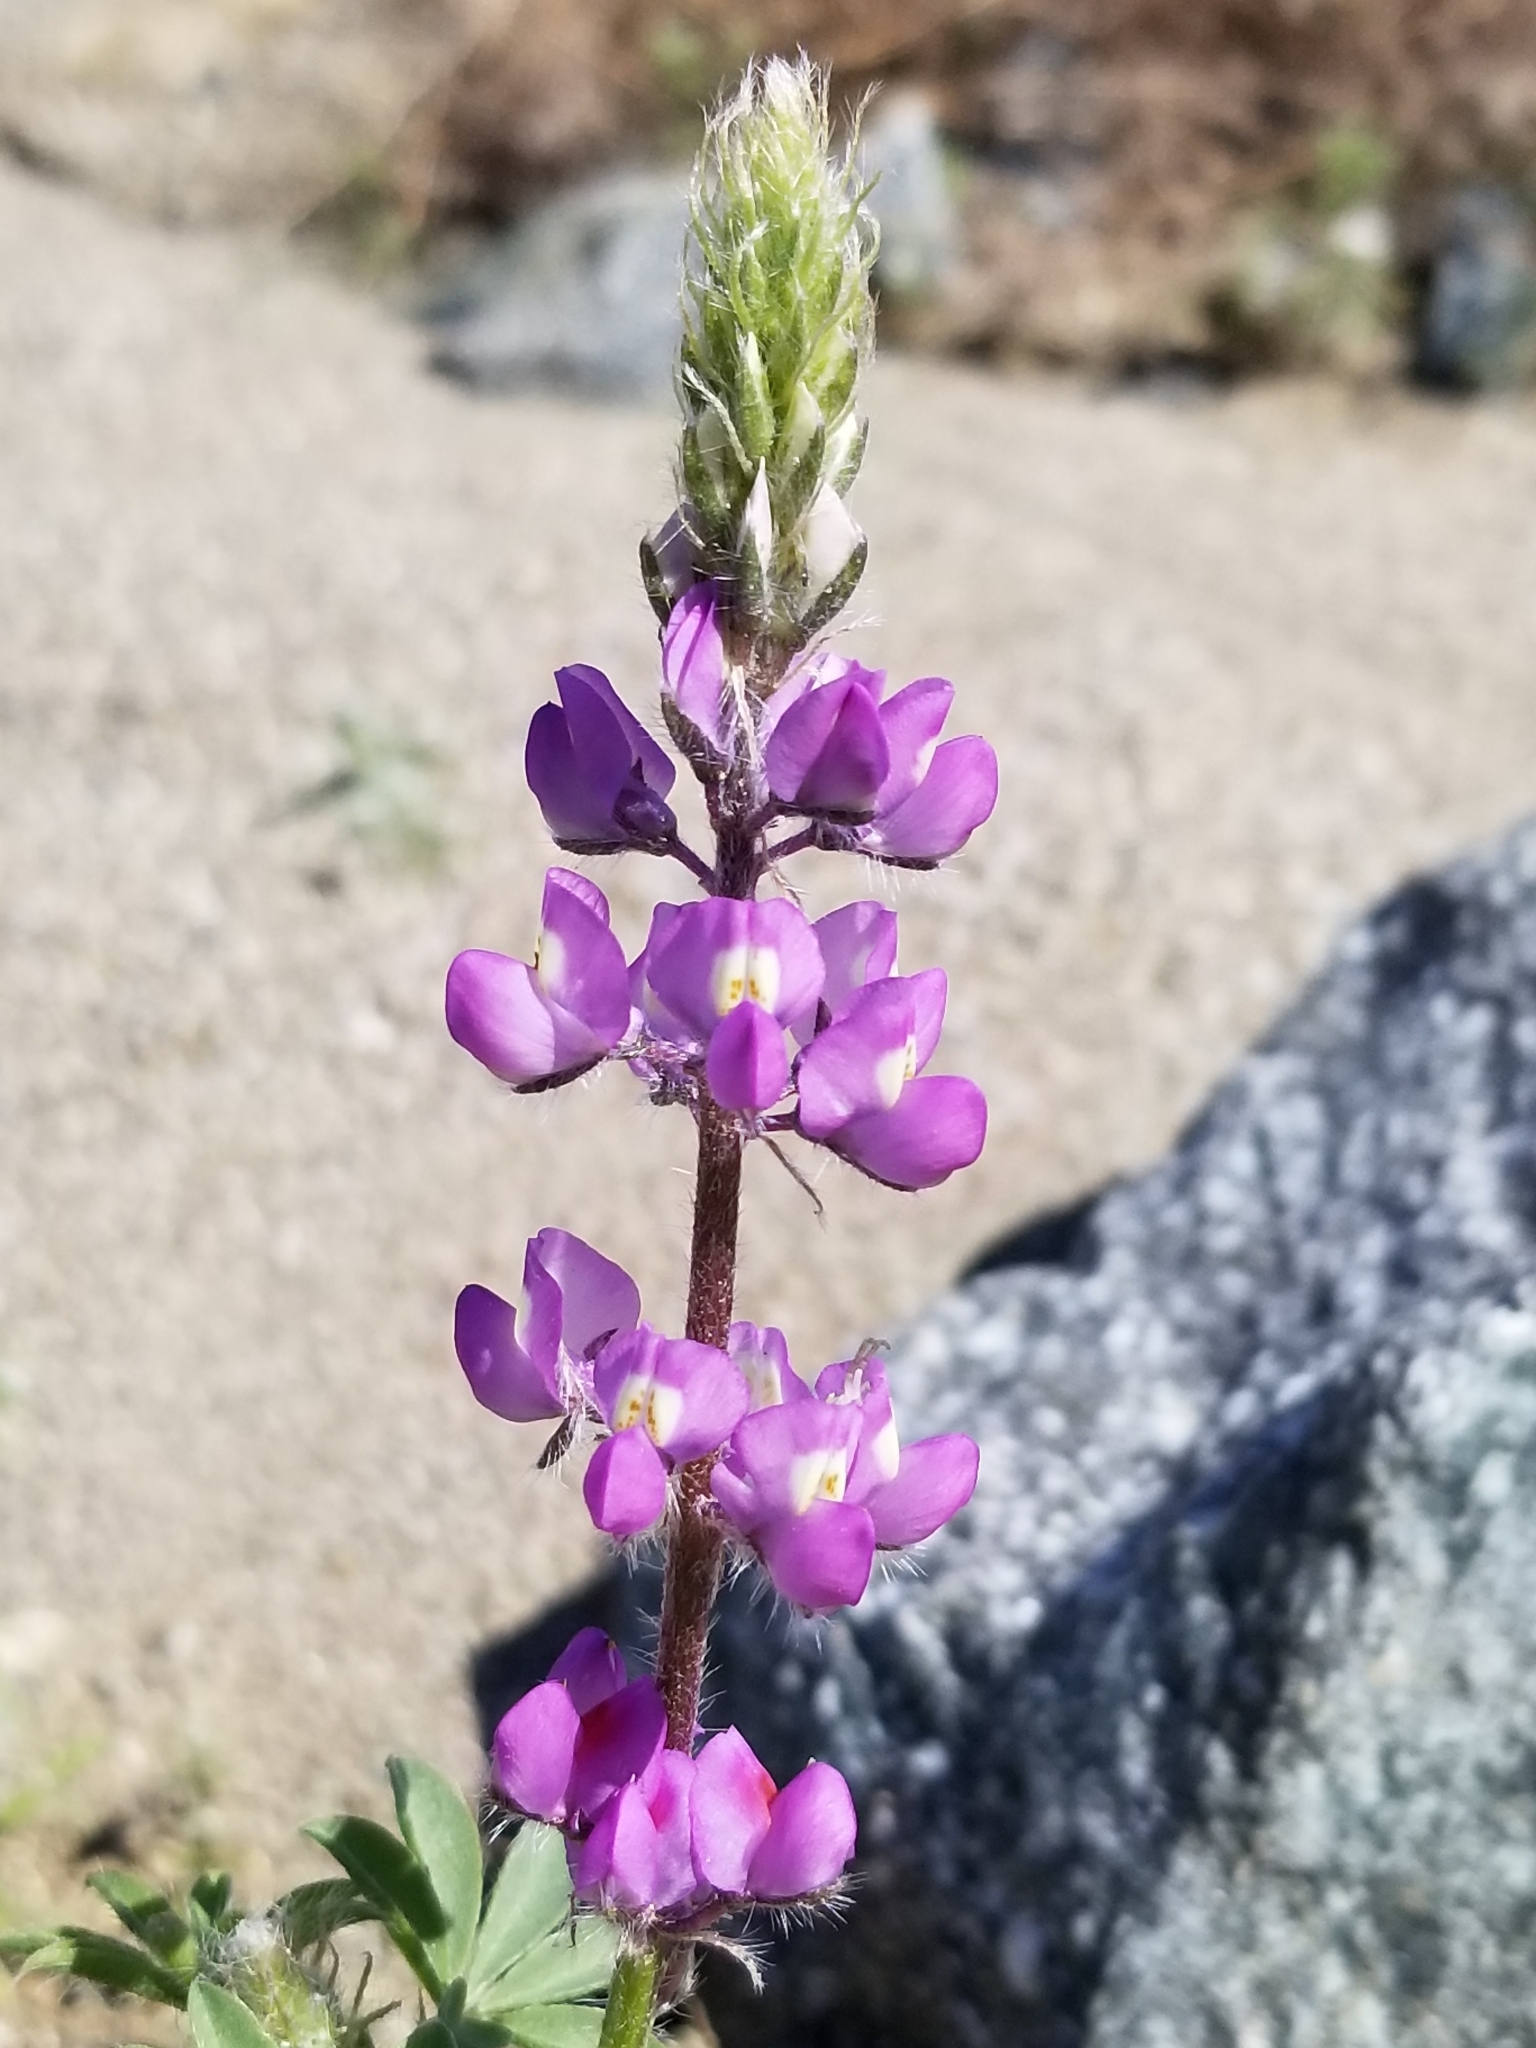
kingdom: Plantae
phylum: Tracheophyta
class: Magnoliopsida
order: Fabales
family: Fabaceae
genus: Lupinus
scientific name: Lupinus arizonicus
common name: Arizona lupine
